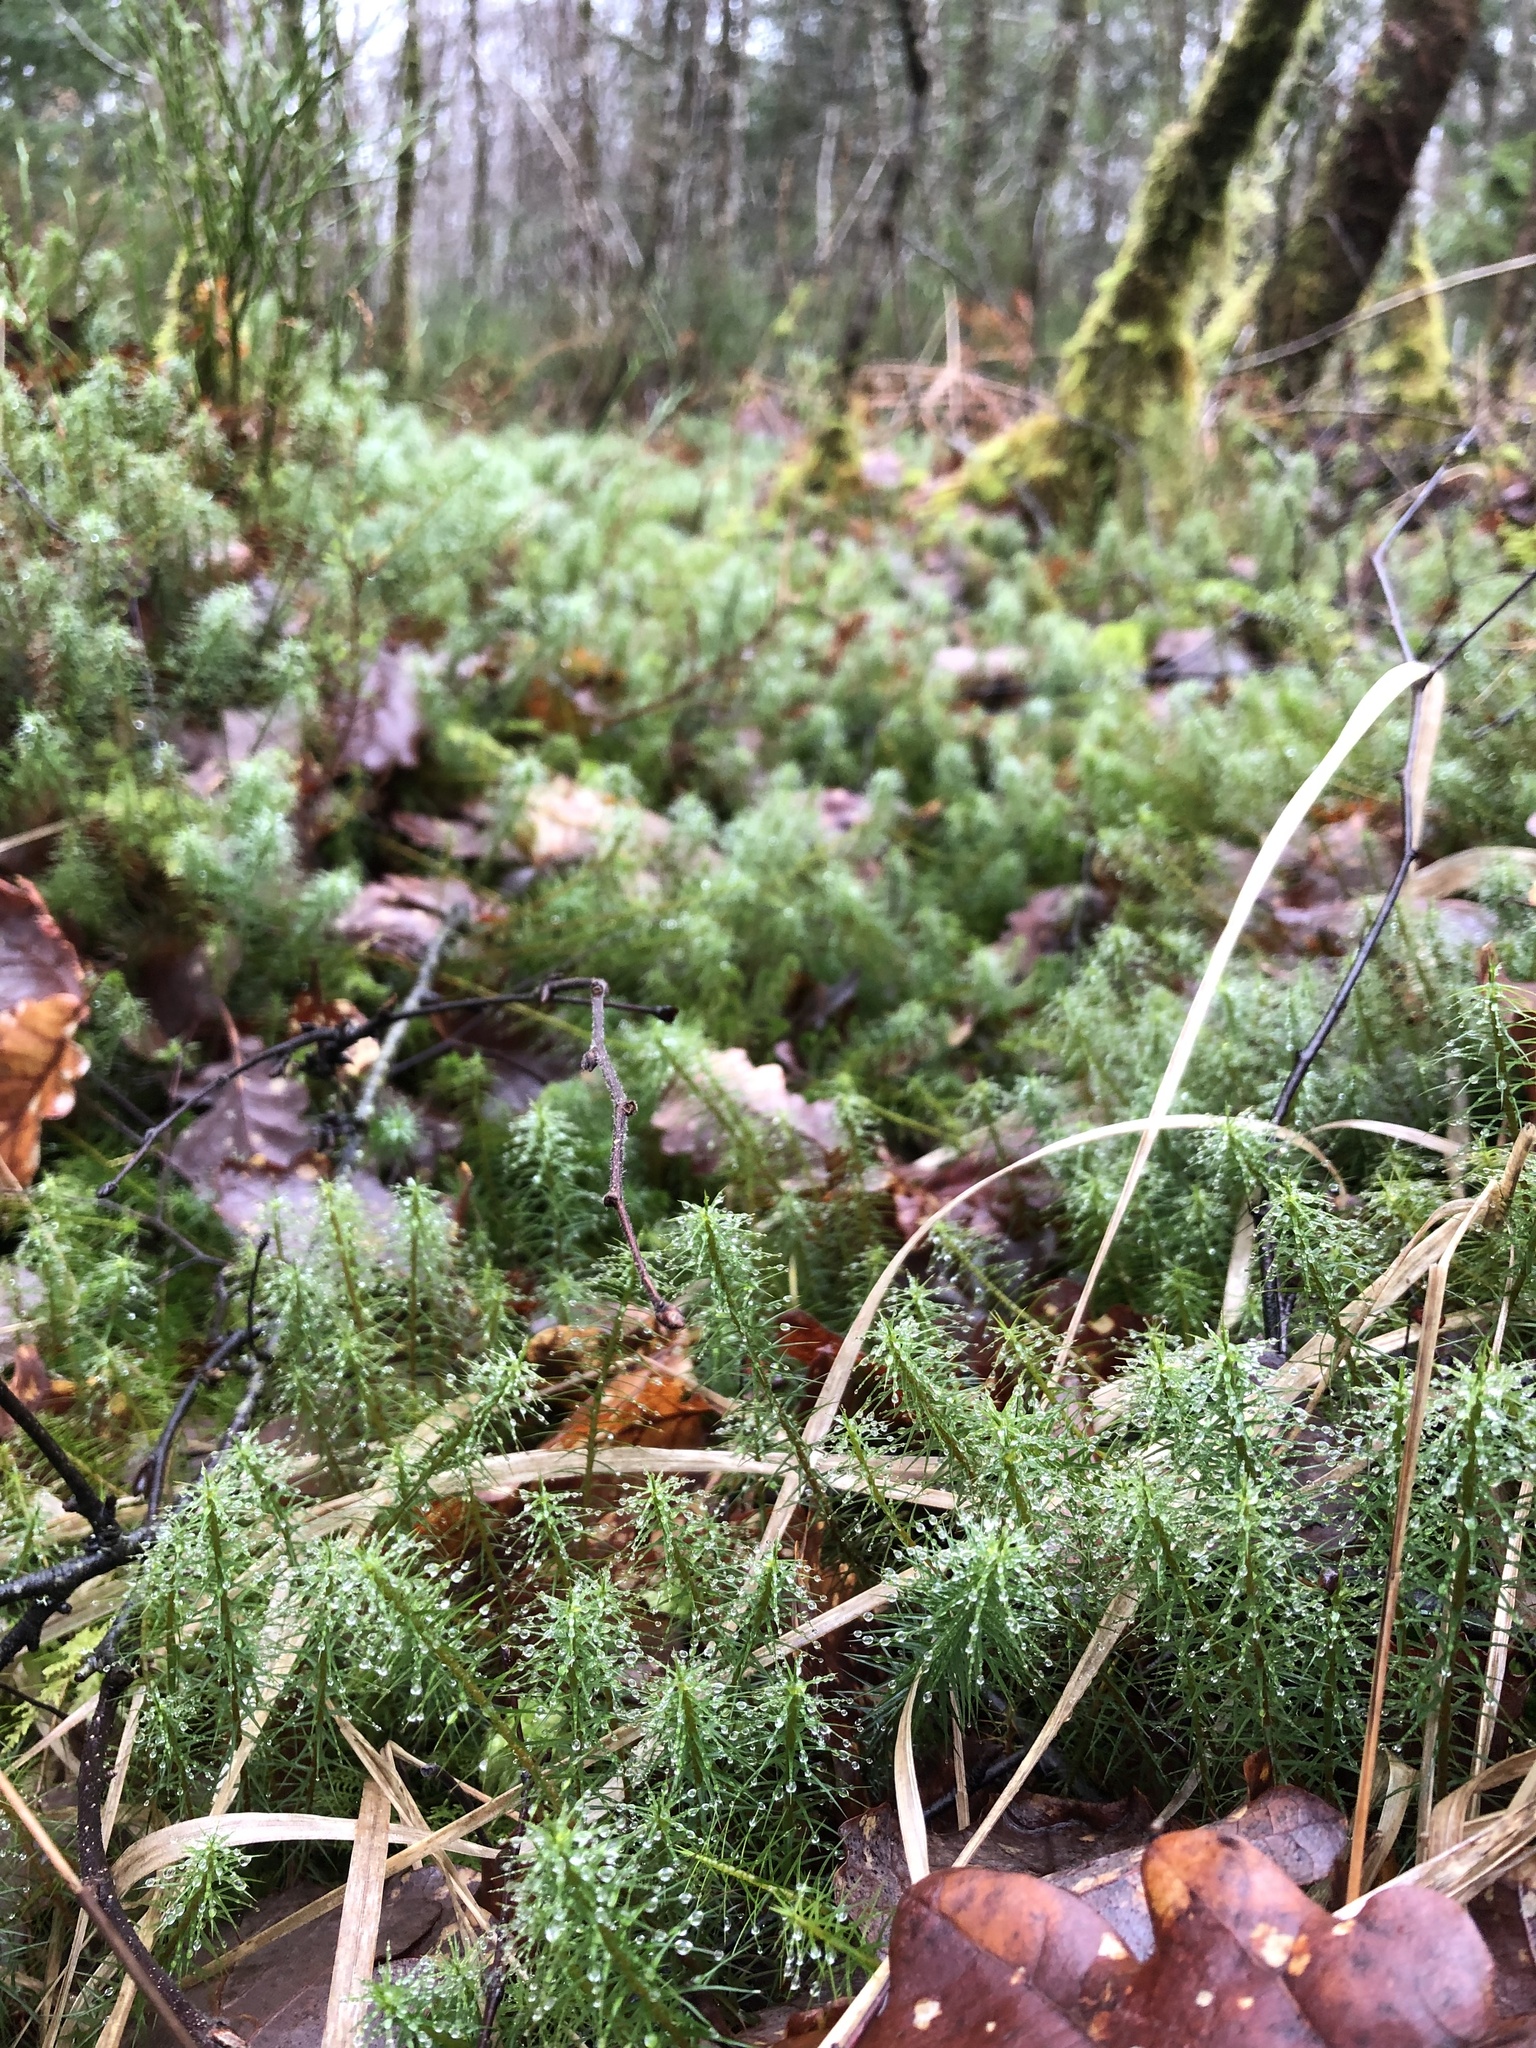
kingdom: Plantae
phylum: Bryophyta
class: Polytrichopsida
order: Polytrichales
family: Polytrichaceae
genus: Polytrichum
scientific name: Polytrichum commune
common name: Common haircap
